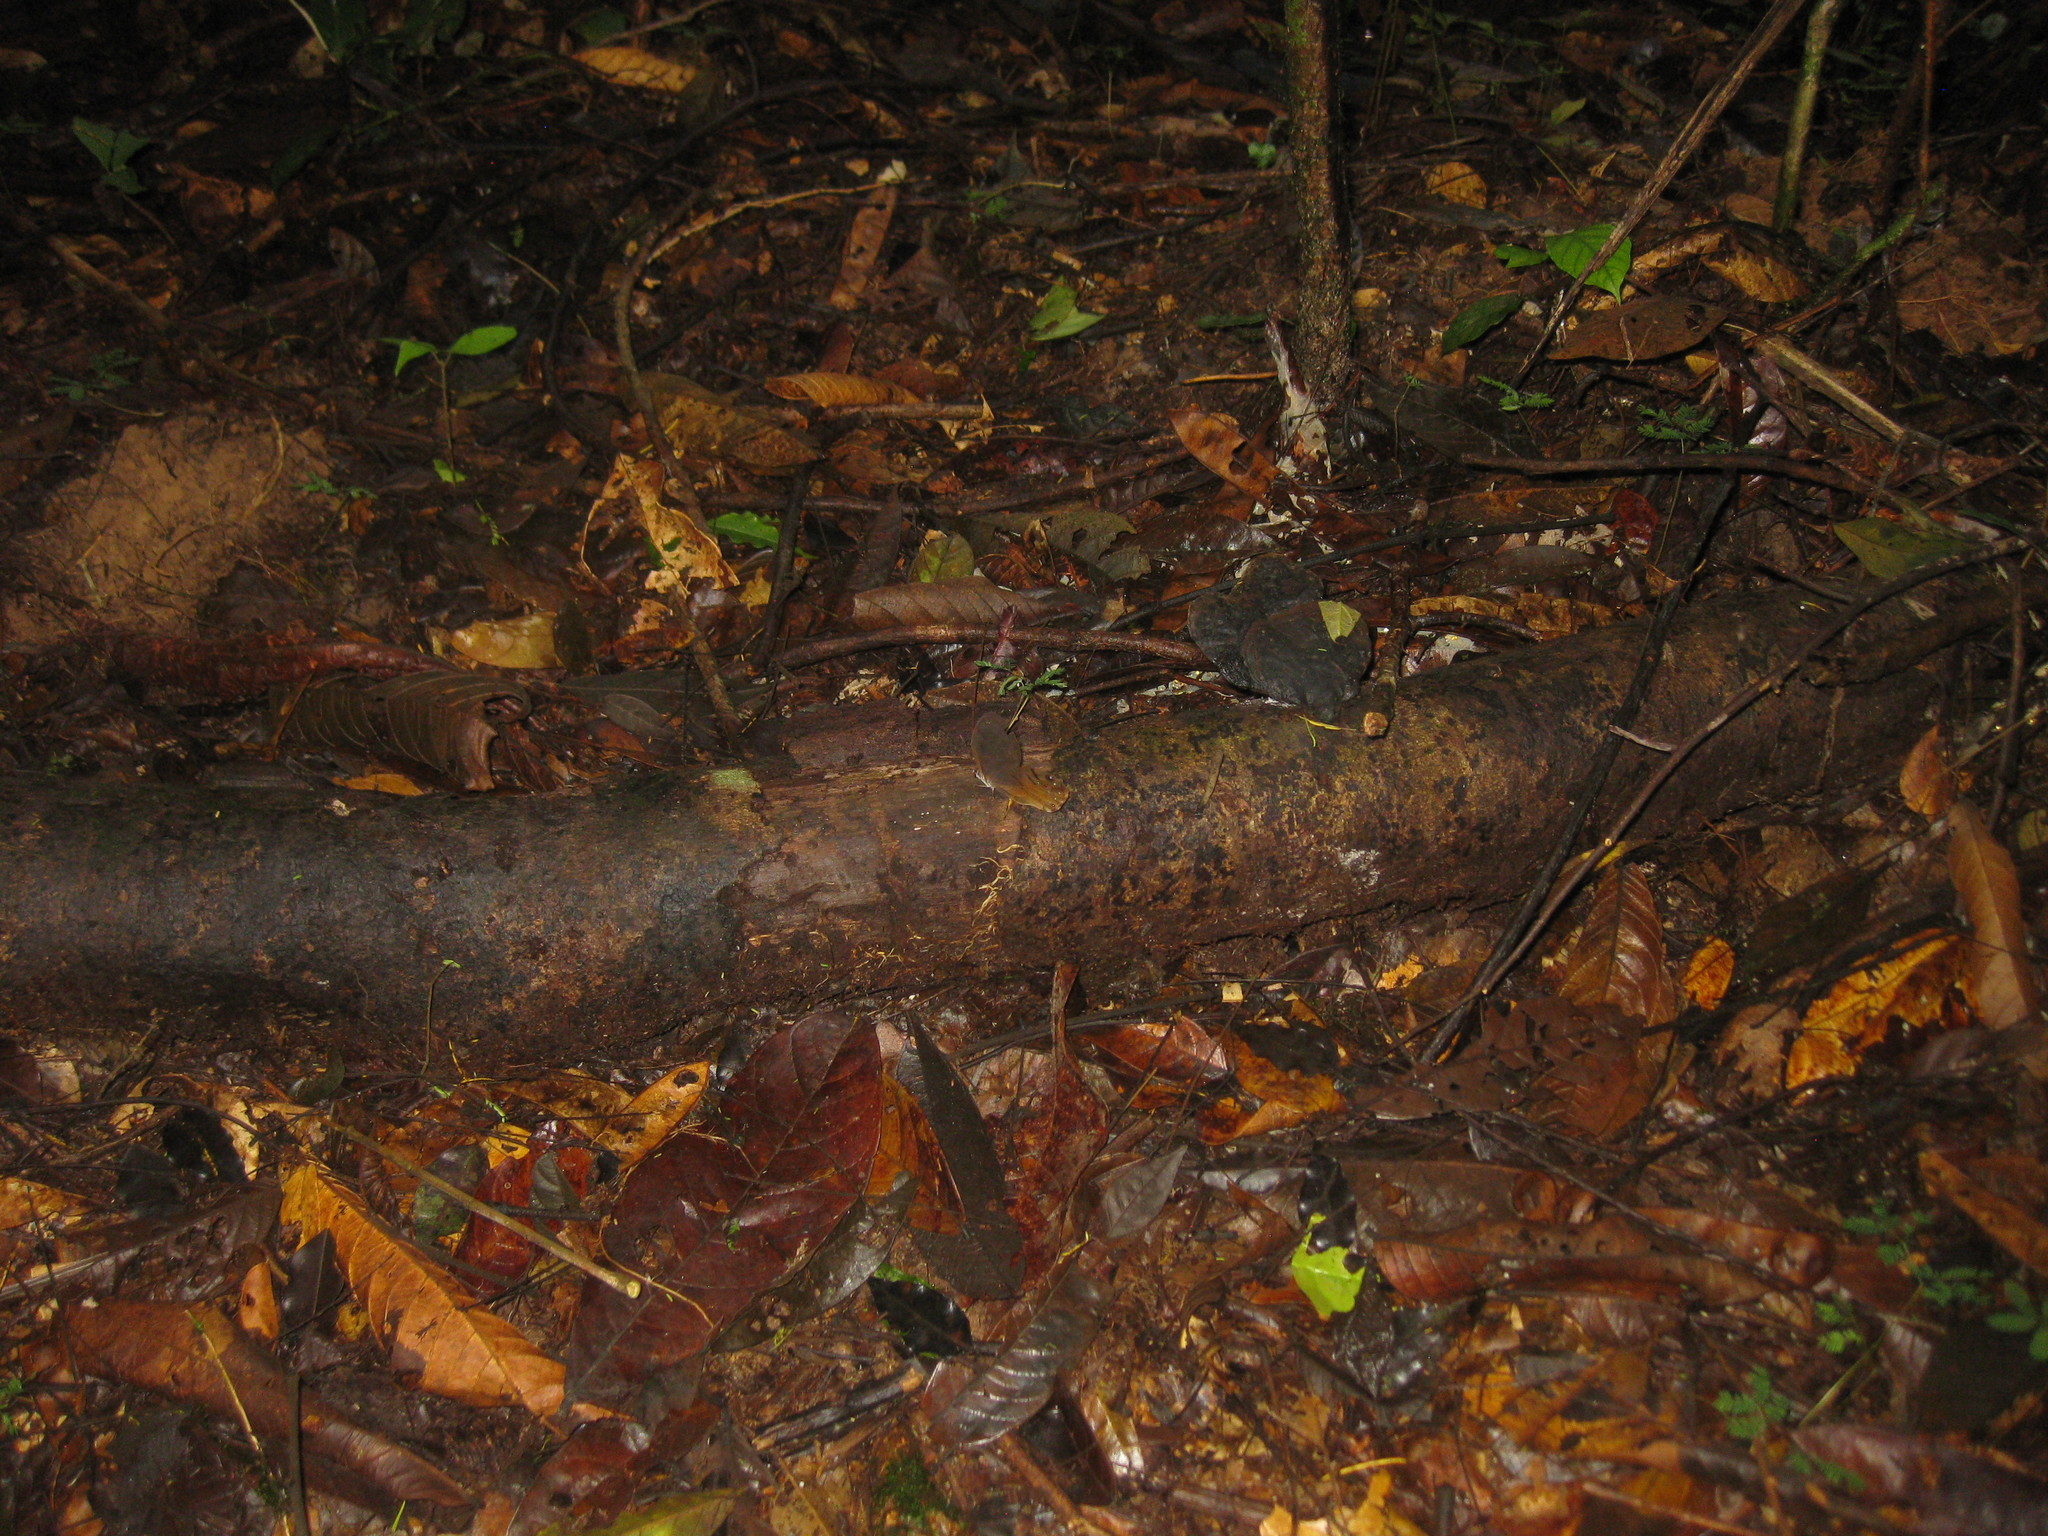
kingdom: Animalia
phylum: Arthropoda
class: Insecta
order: Lepidoptera
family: Nymphalidae
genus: Haetera
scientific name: Haetera piera
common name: Amber phantom
